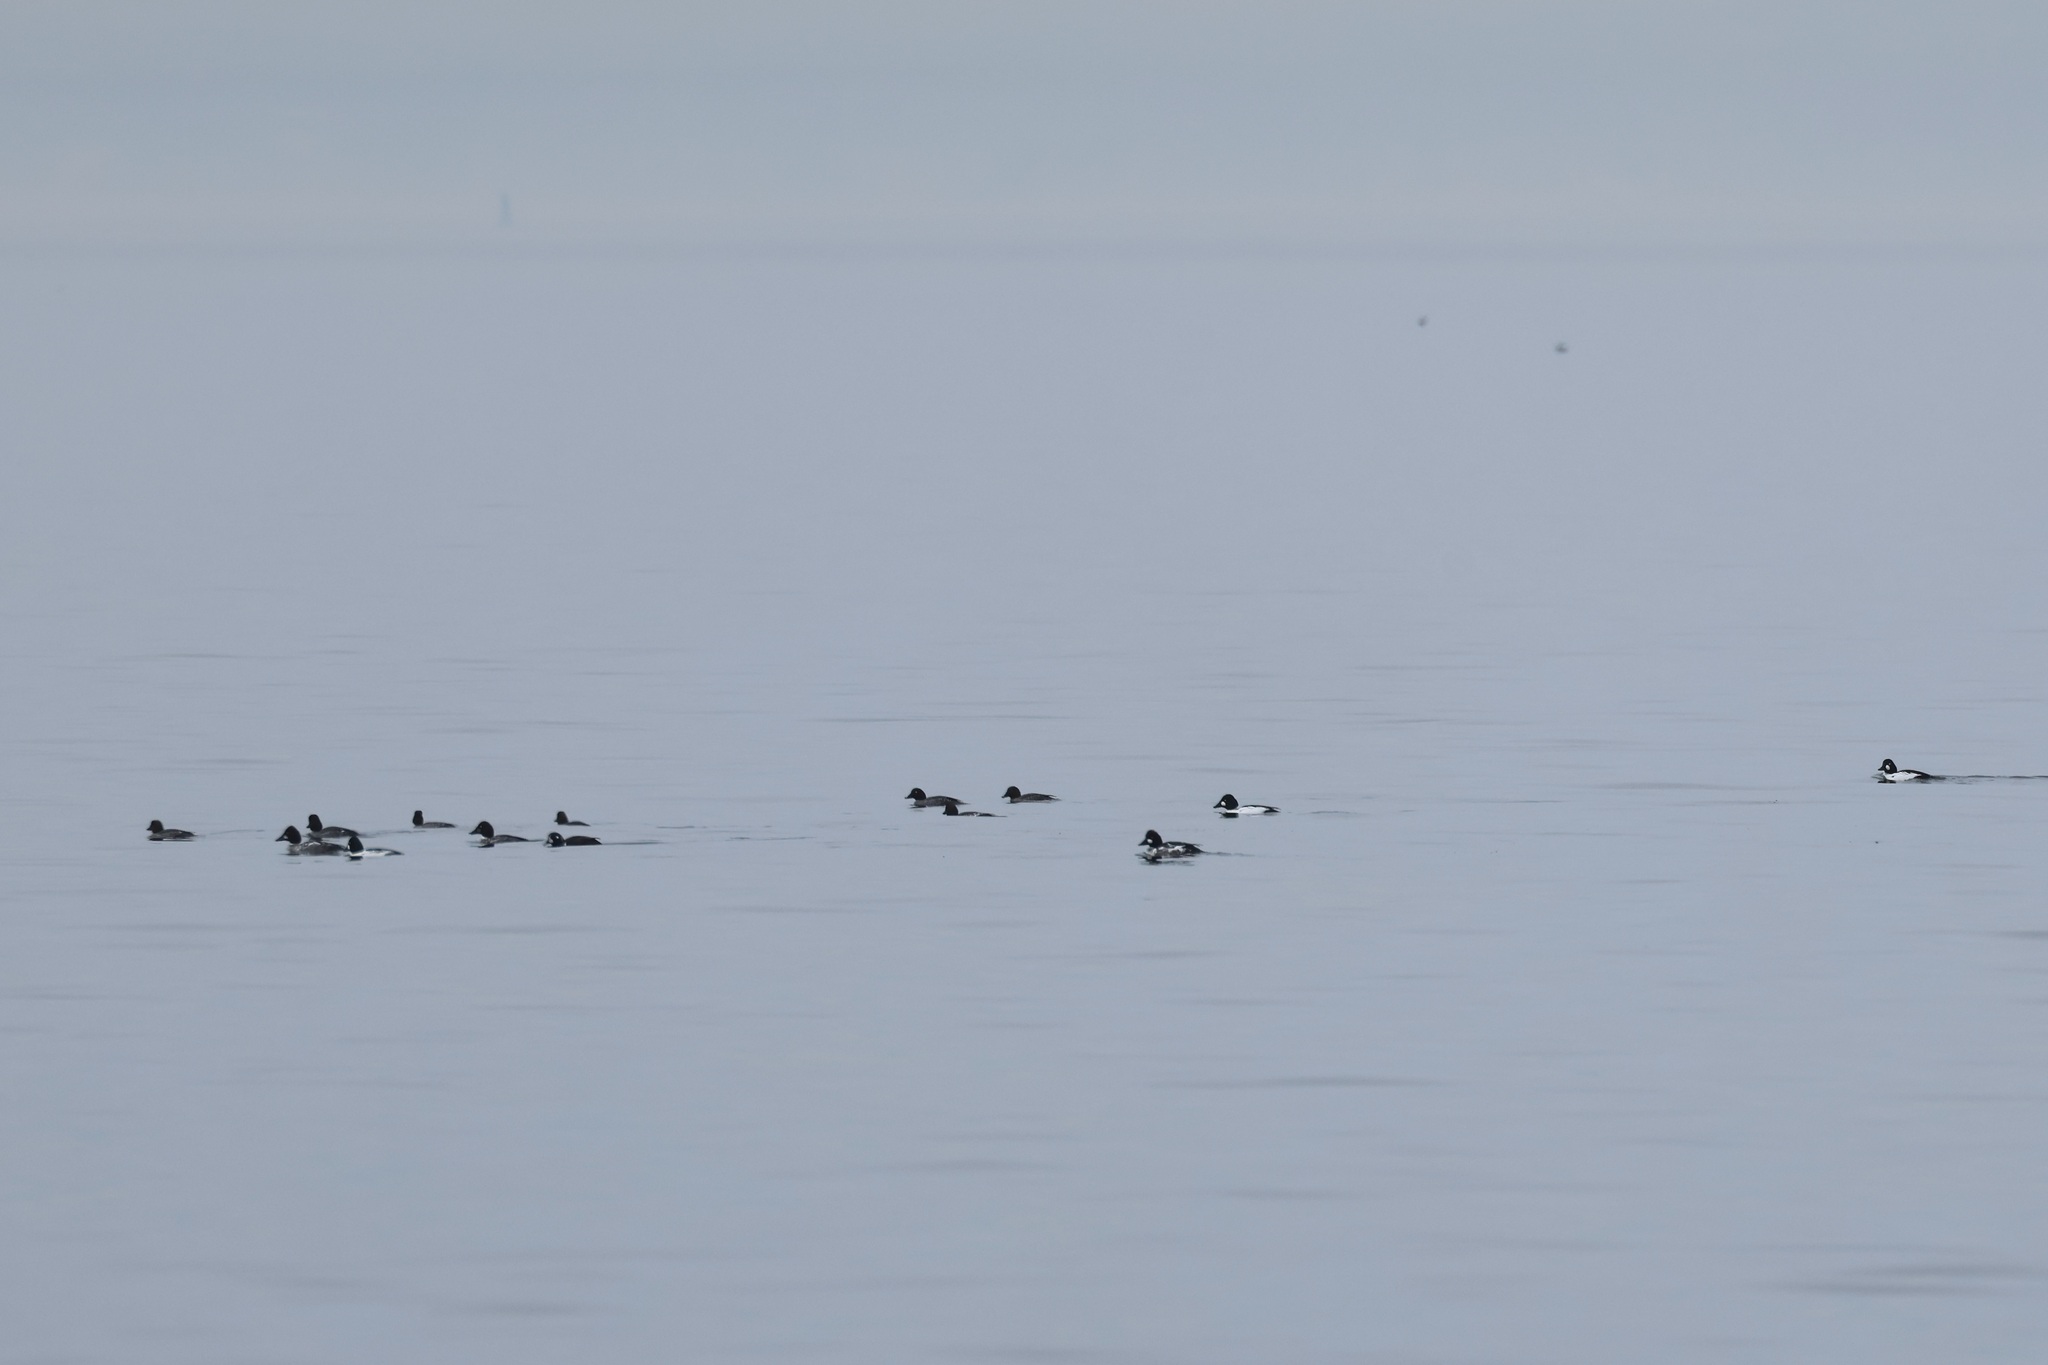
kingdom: Animalia
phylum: Chordata
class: Aves
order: Anseriformes
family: Anatidae
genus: Bucephala
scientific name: Bucephala clangula
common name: Common goldeneye
